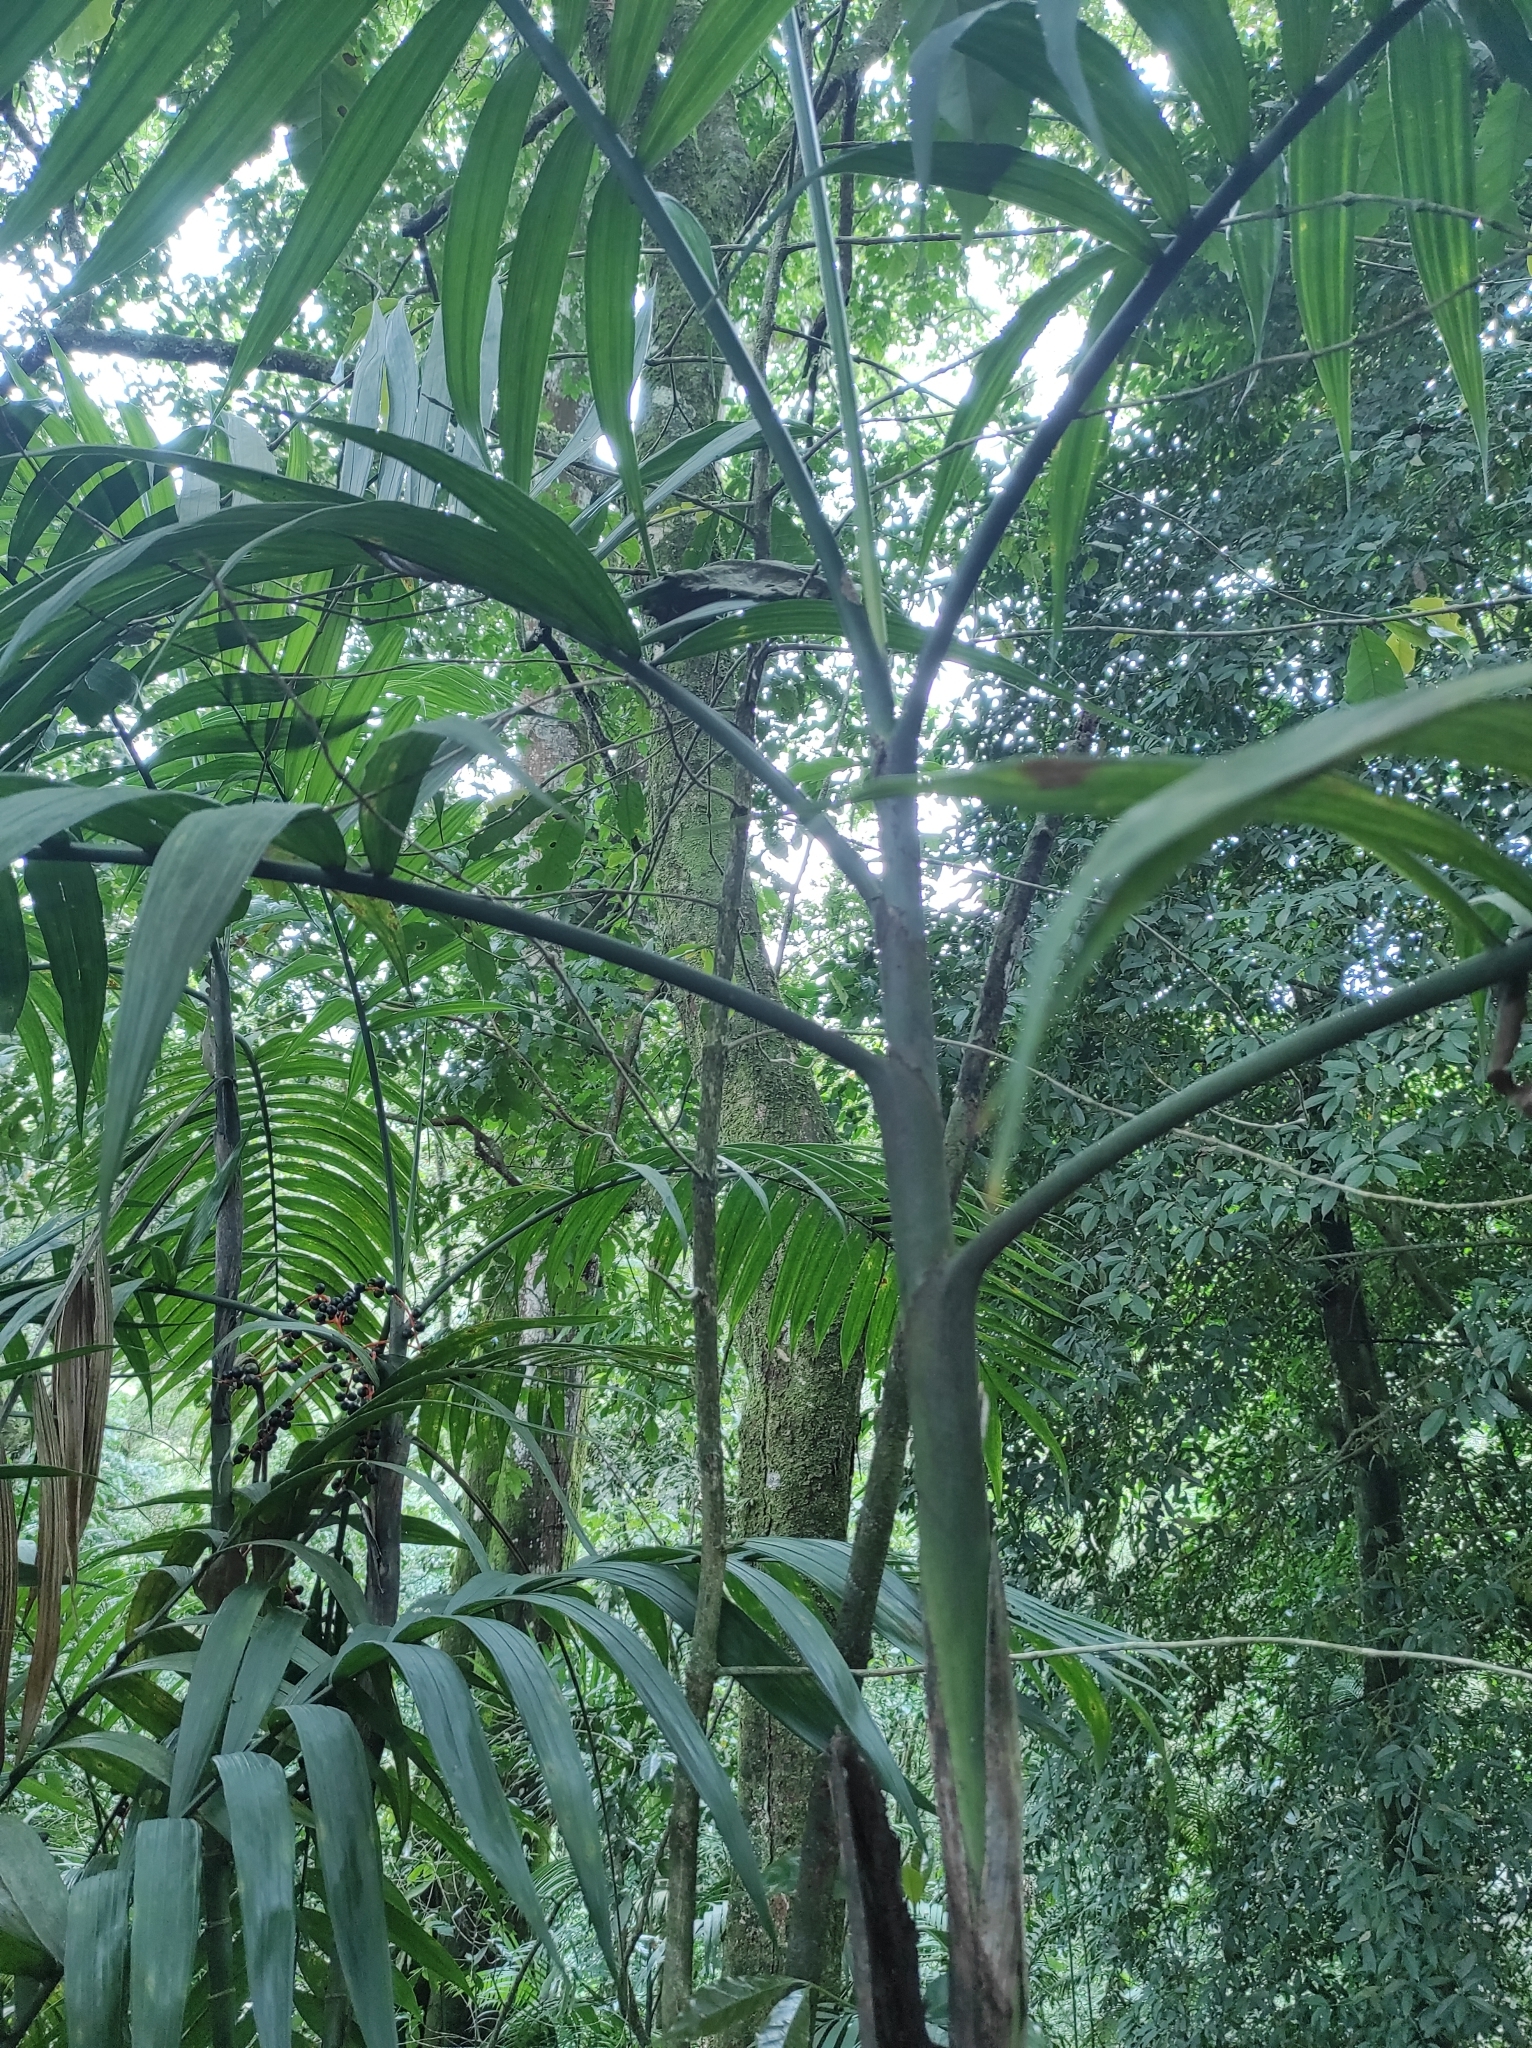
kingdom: Plantae
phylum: Tracheophyta
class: Liliopsida
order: Arecales
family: Arecaceae
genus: Chamaedorea
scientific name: Chamaedorea tepejilote
